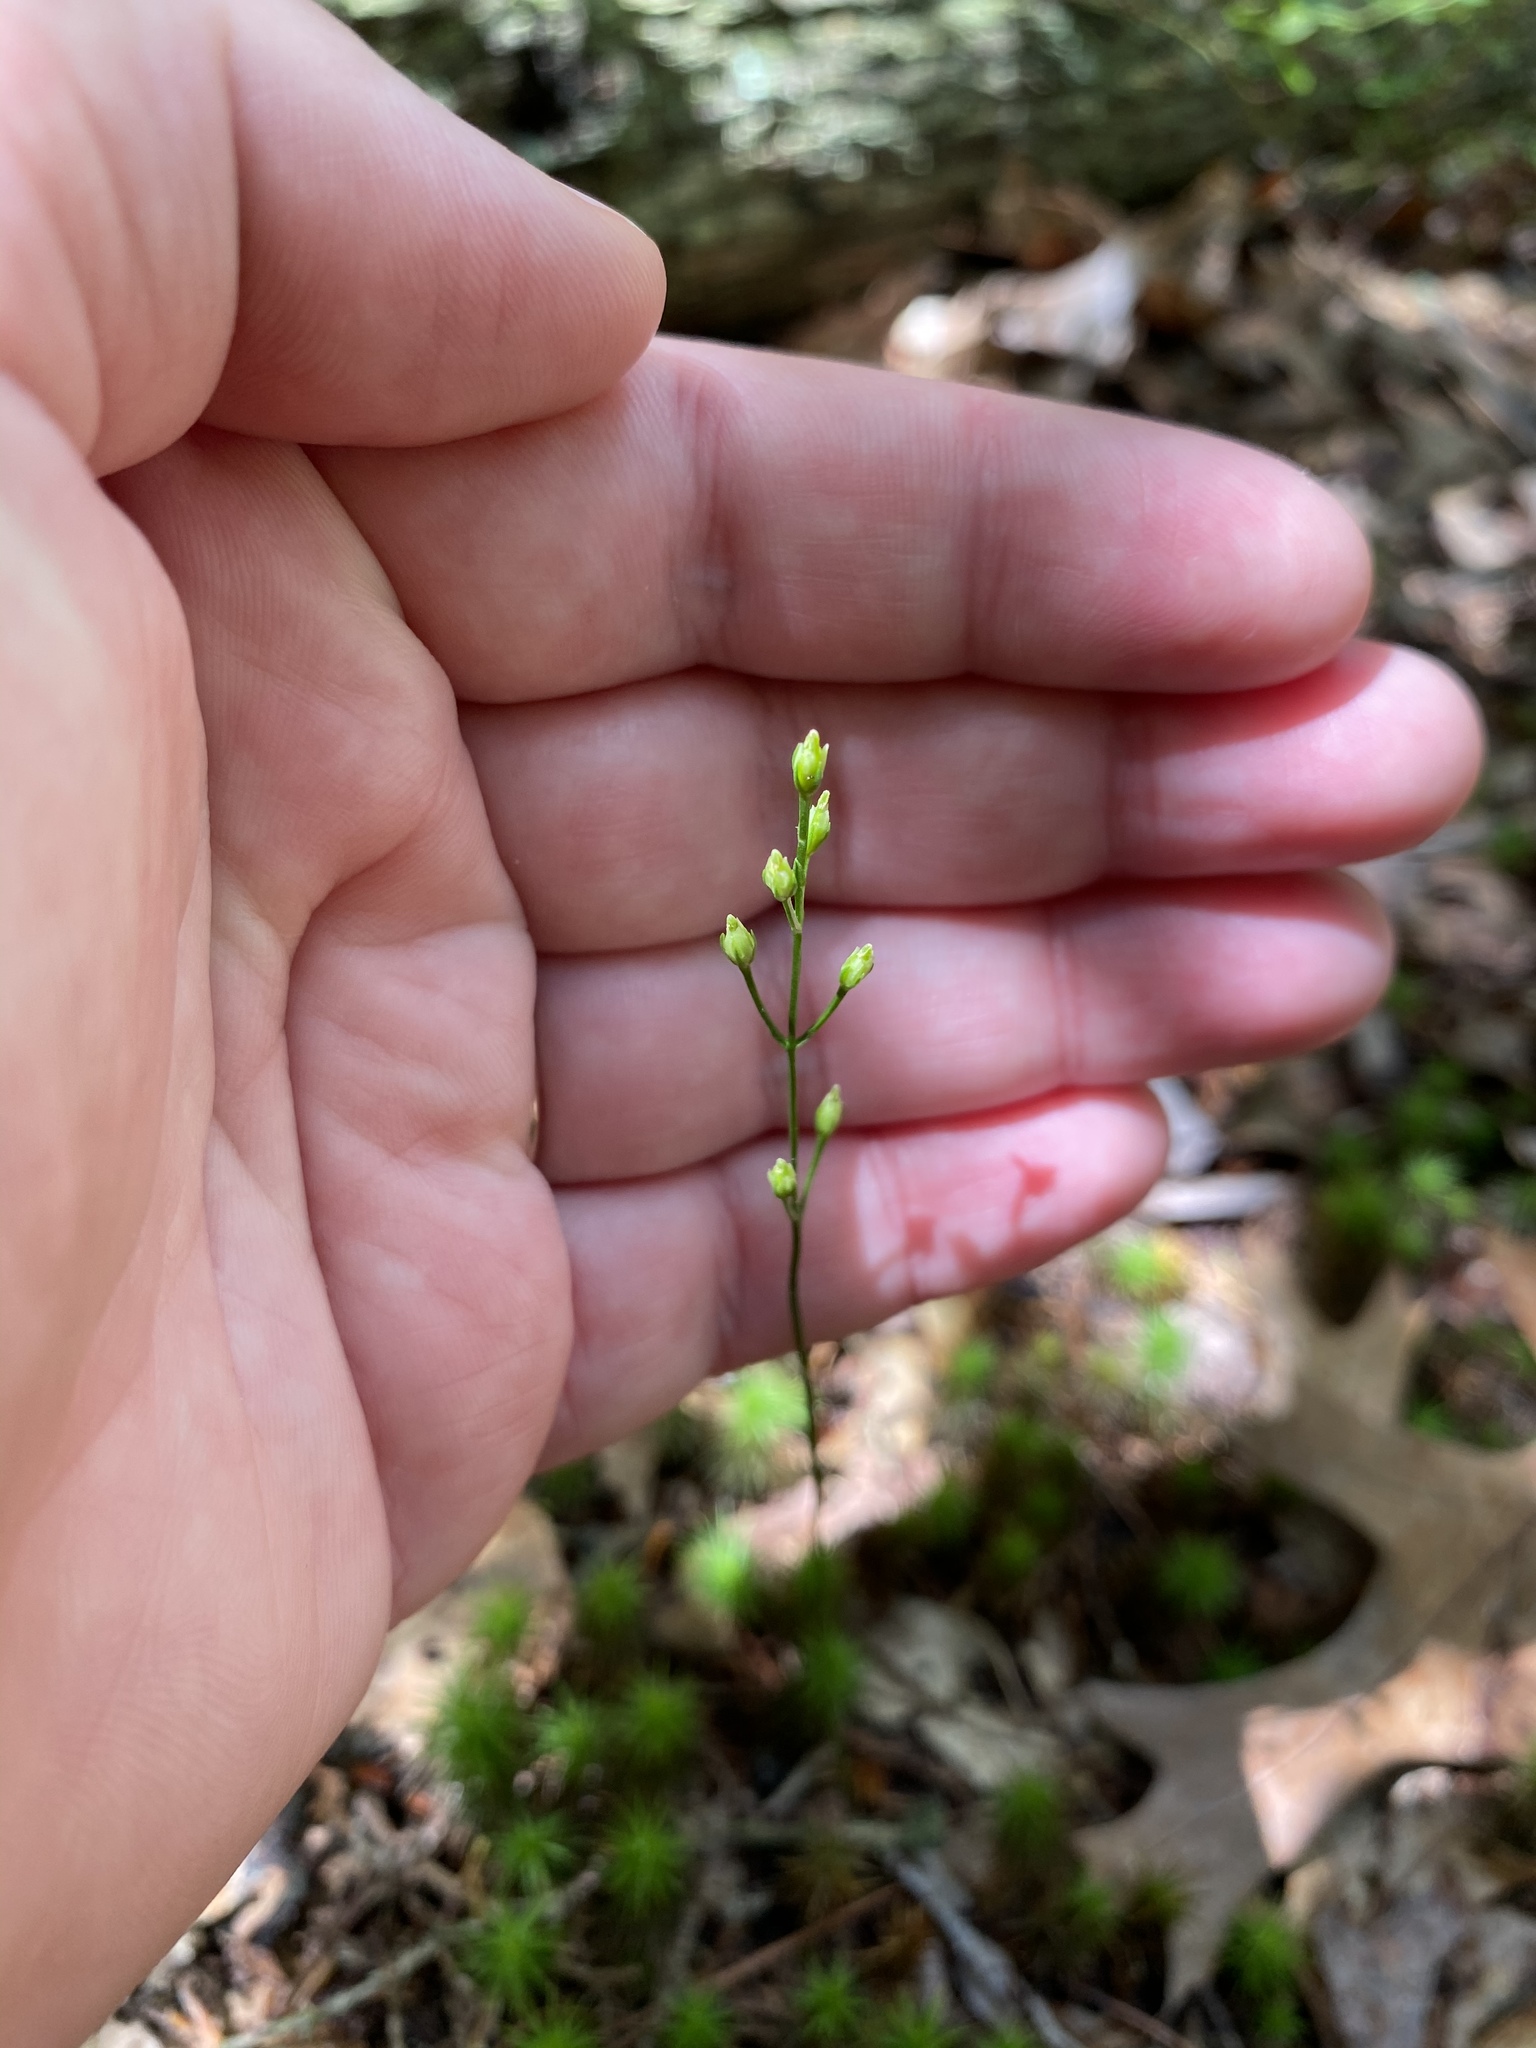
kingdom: Plantae
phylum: Tracheophyta
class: Magnoliopsida
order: Gentianales
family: Gentianaceae
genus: Bartonia
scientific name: Bartonia virginica
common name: Yellow bartonia
